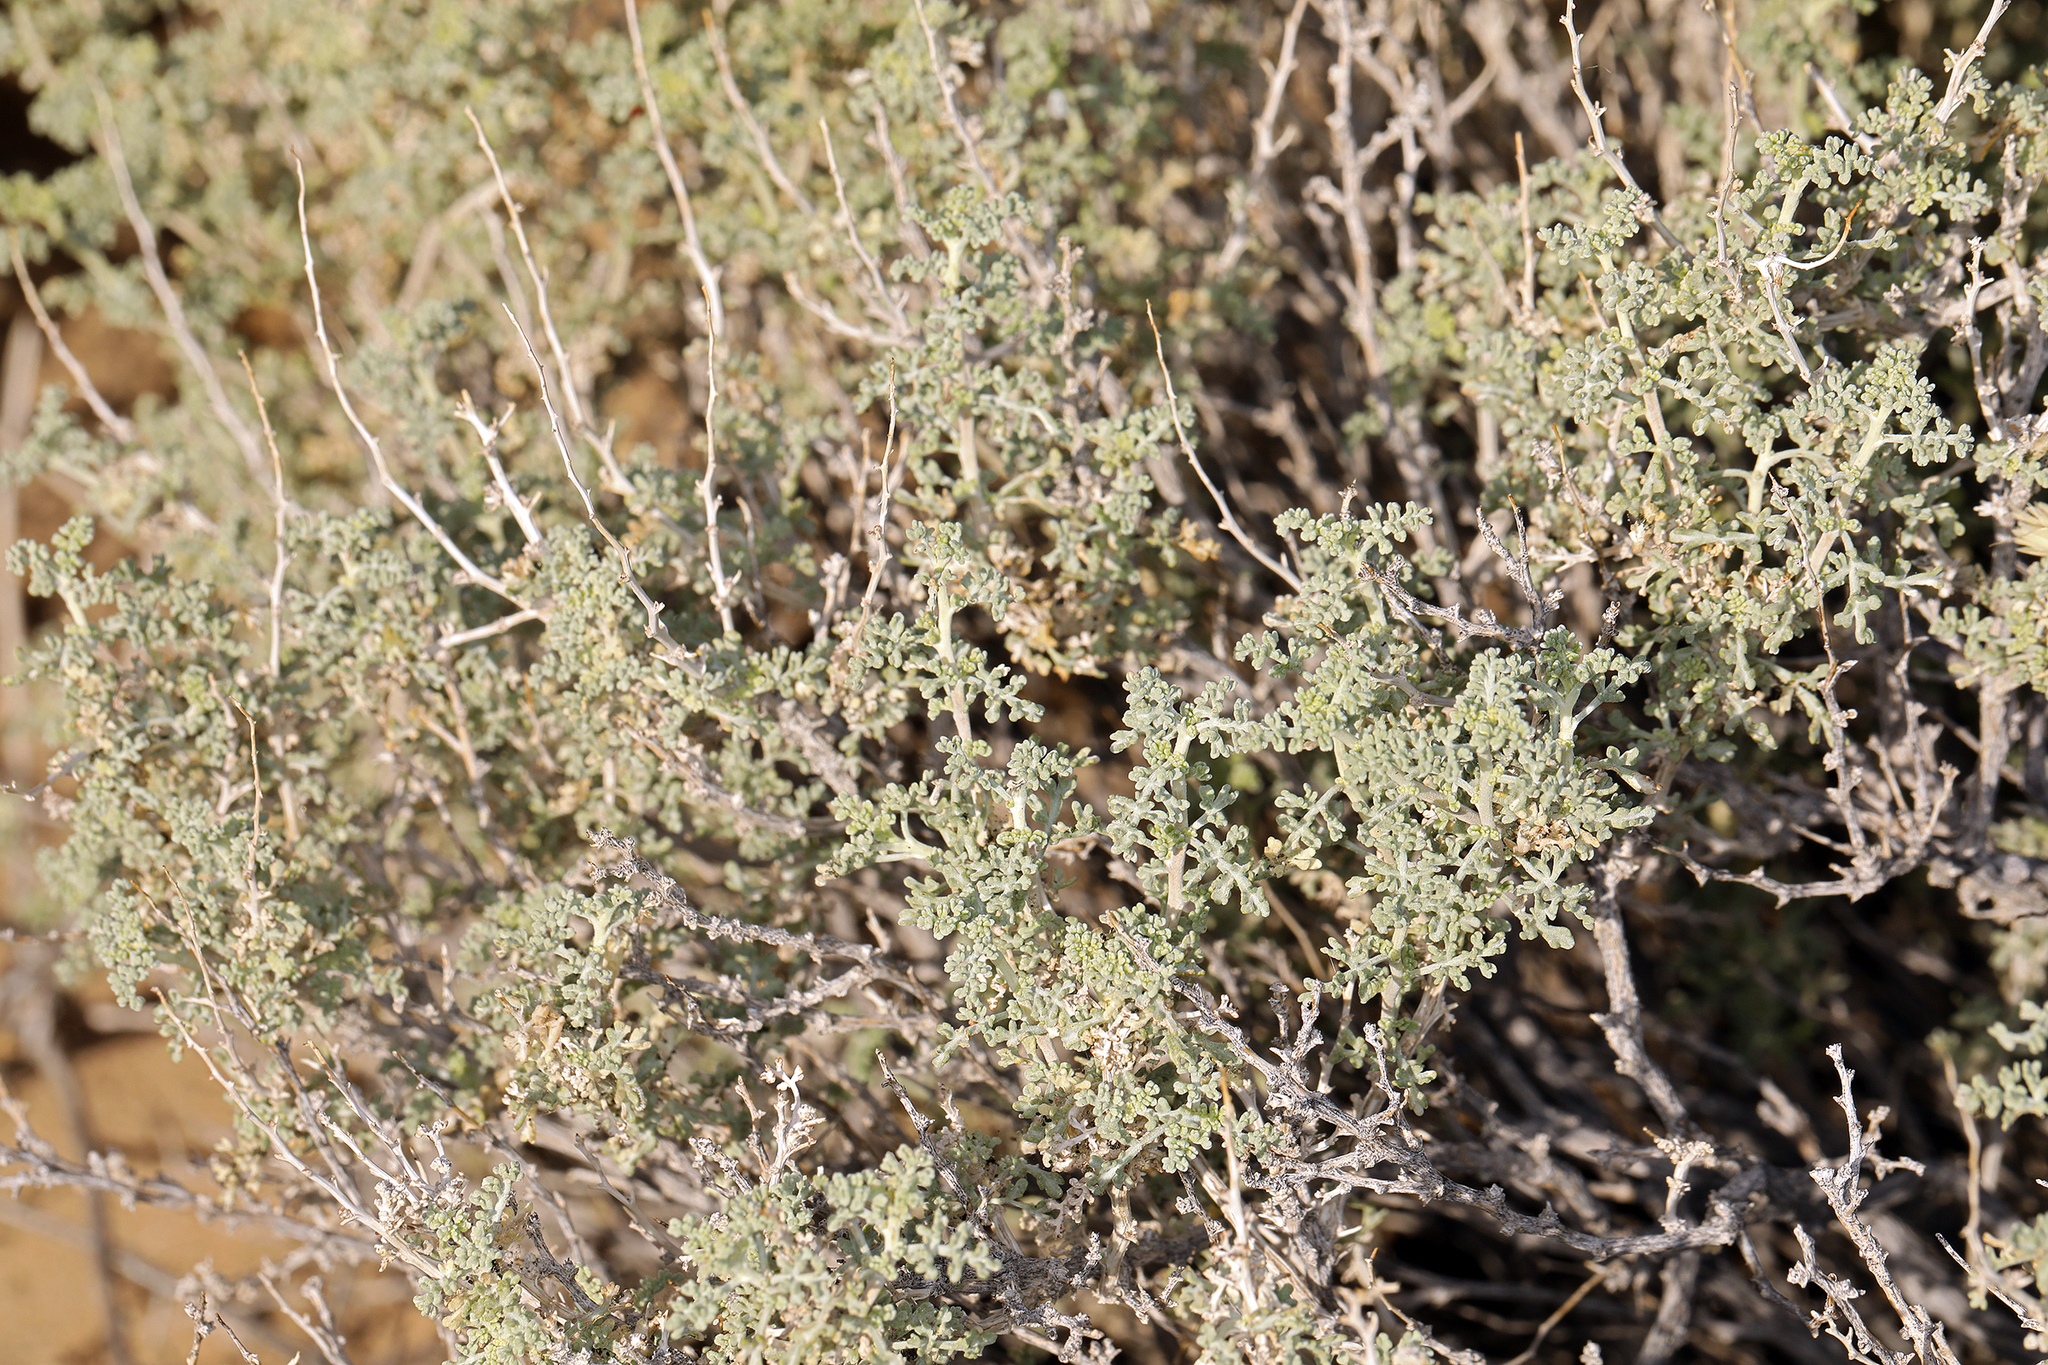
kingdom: Plantae
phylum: Tracheophyta
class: Magnoliopsida
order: Asterales
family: Asteraceae
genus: Ambrosia
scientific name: Ambrosia dumosa
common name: Bur-sage
